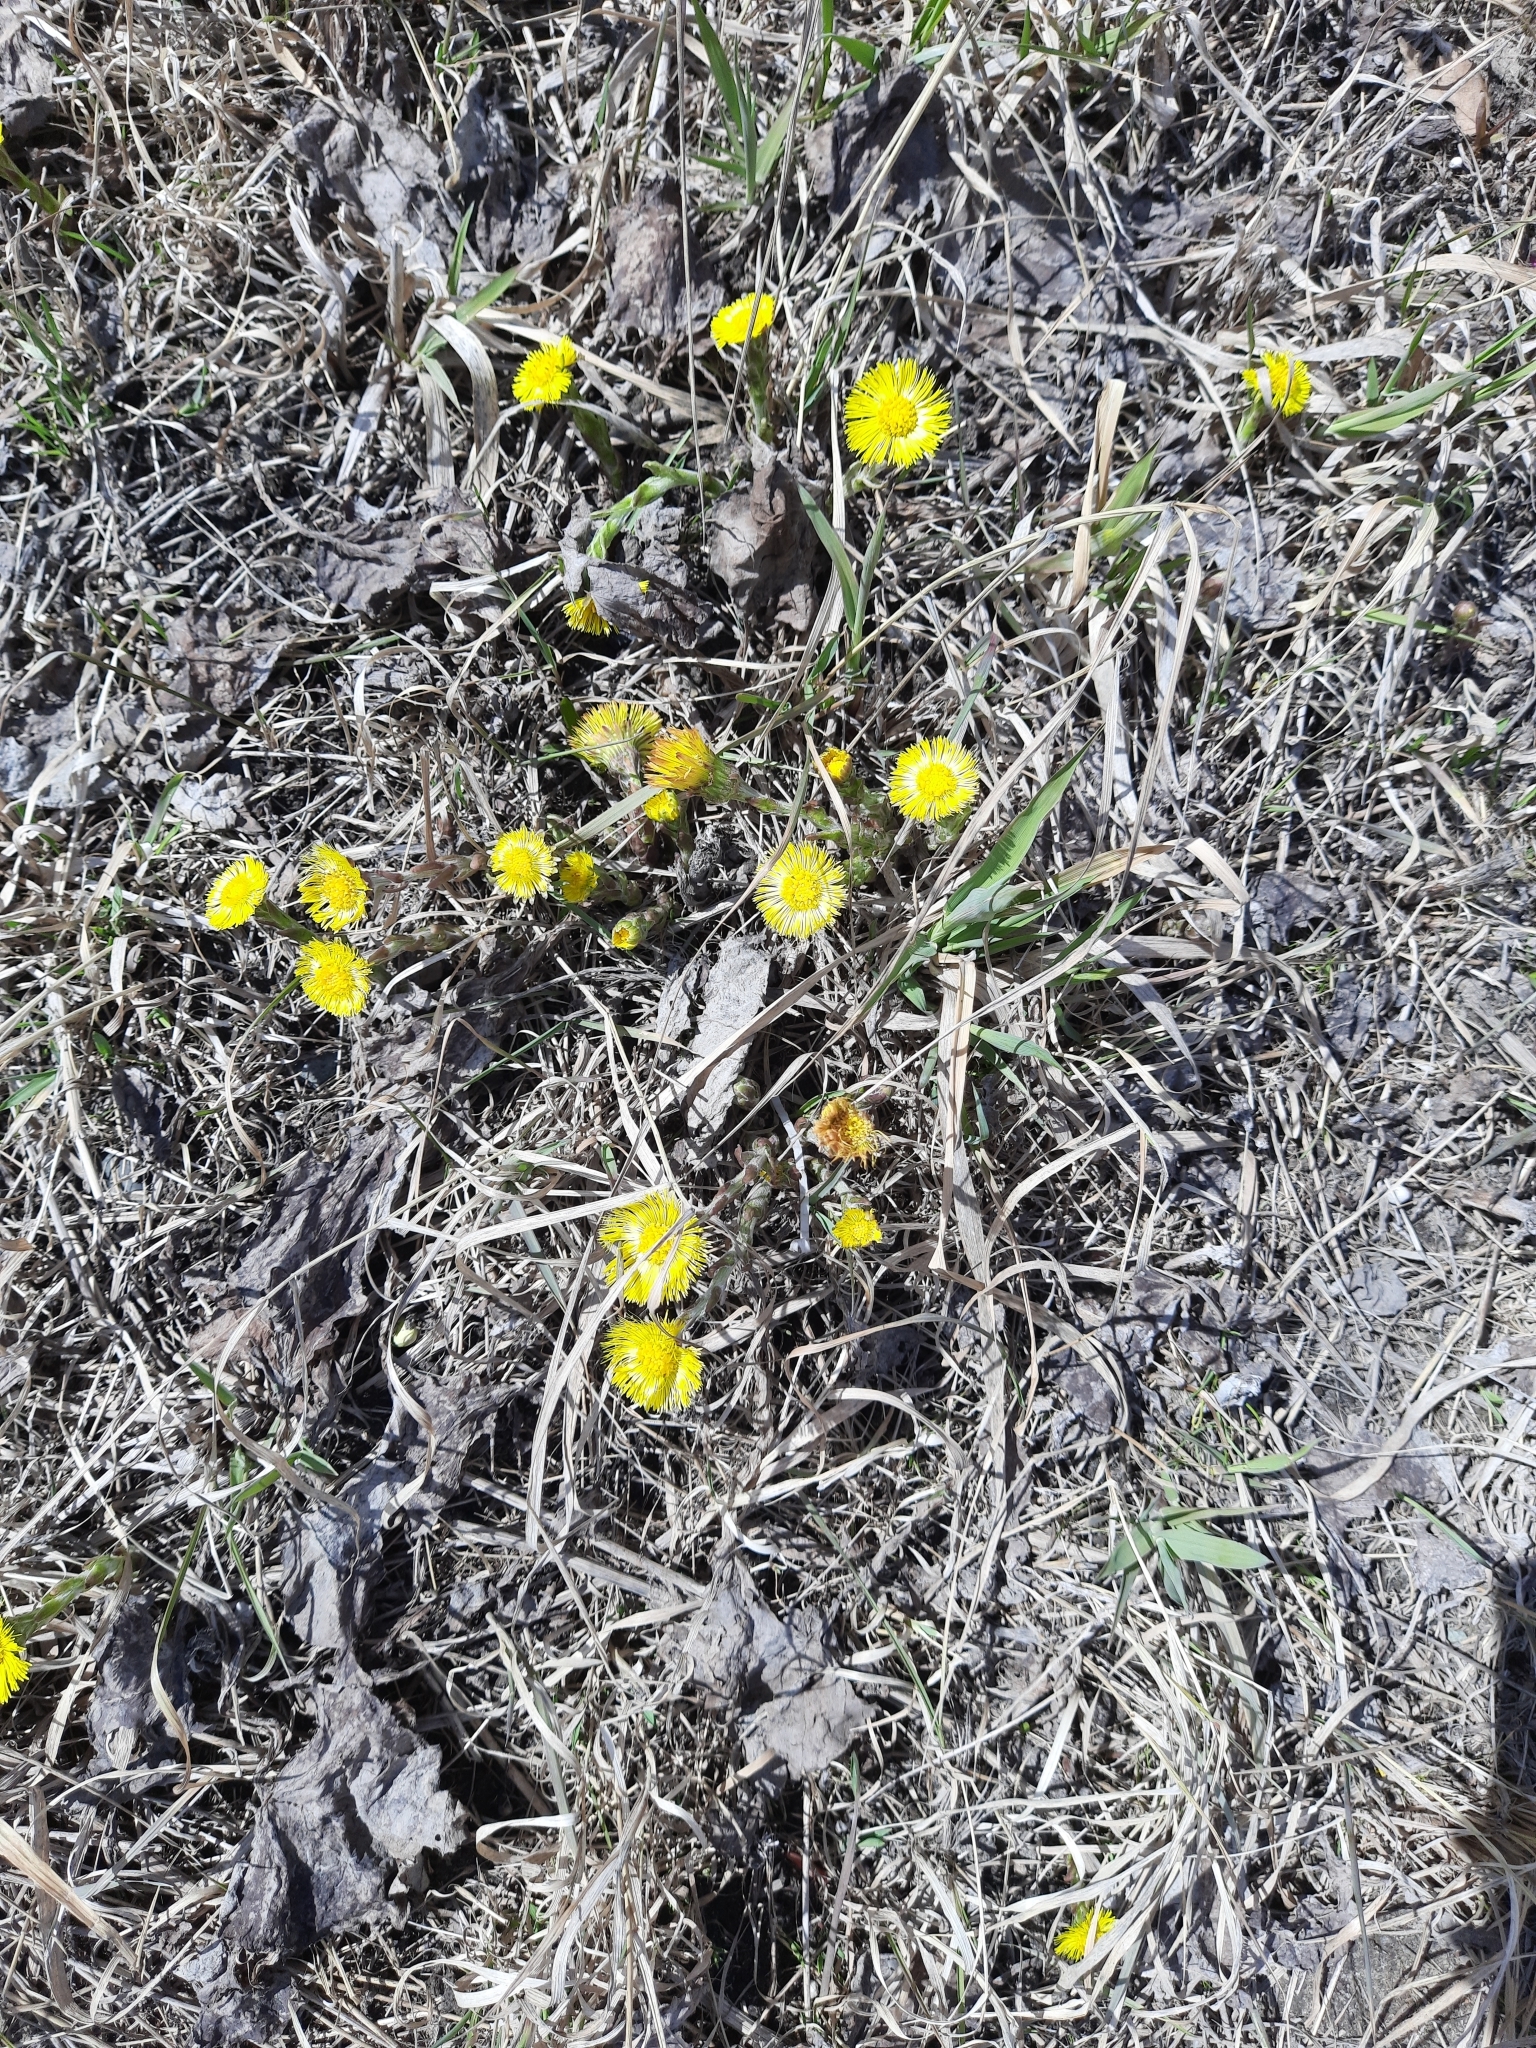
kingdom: Plantae
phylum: Tracheophyta
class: Magnoliopsida
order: Asterales
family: Asteraceae
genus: Tussilago
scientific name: Tussilago farfara
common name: Coltsfoot
